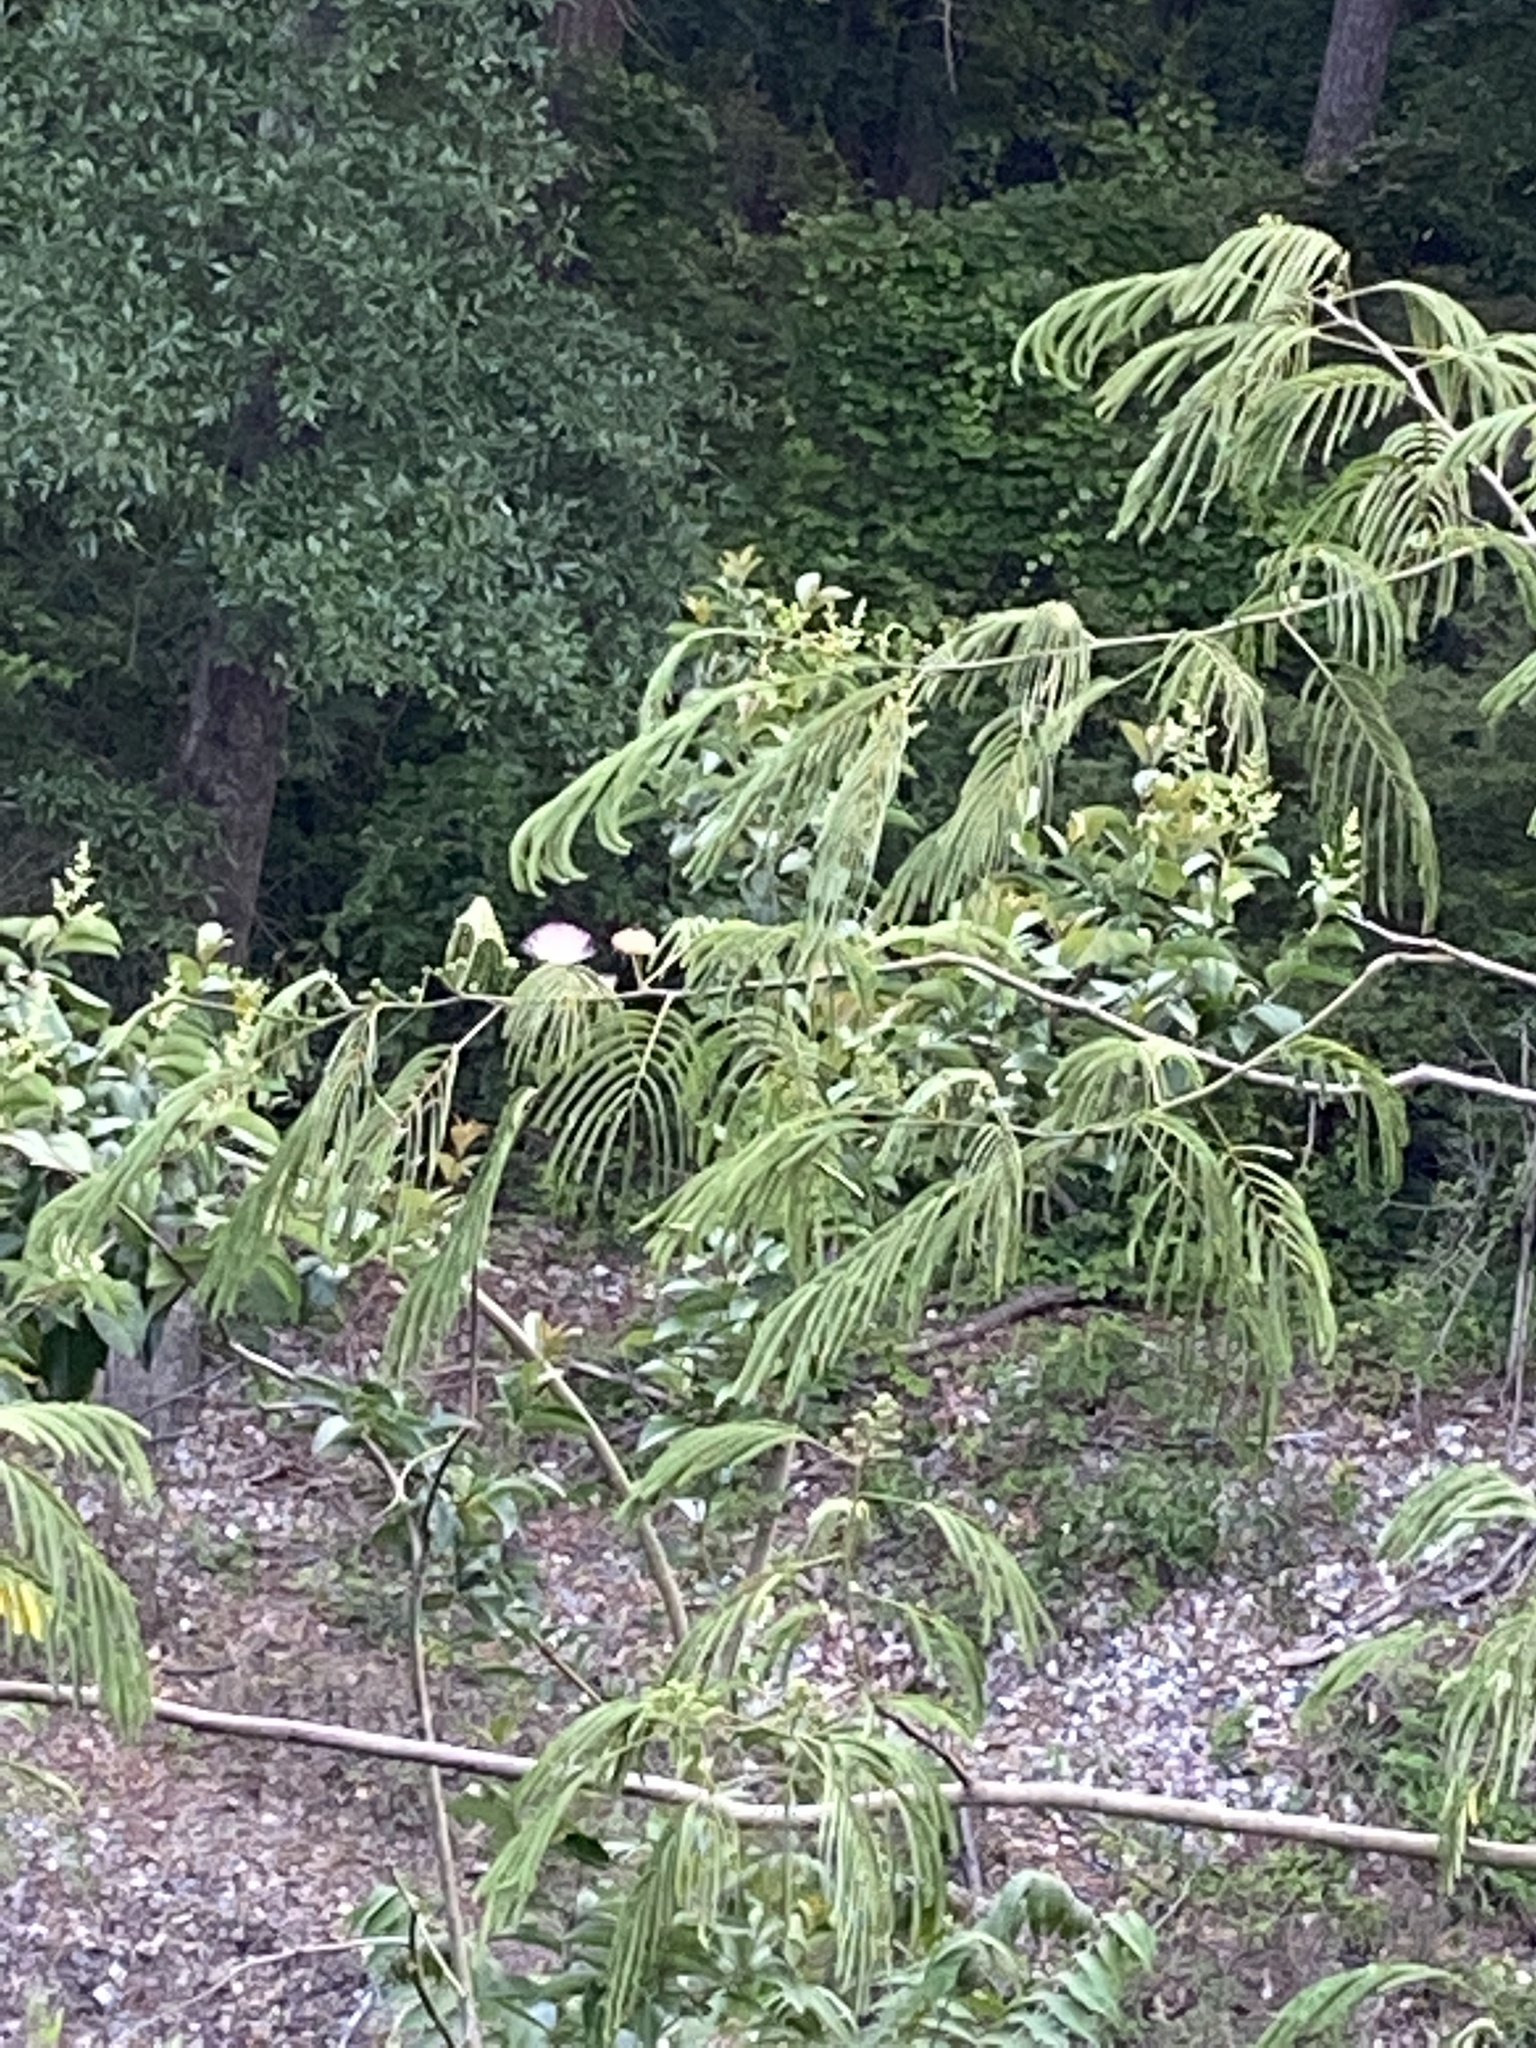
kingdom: Plantae
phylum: Tracheophyta
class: Magnoliopsida
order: Fabales
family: Fabaceae
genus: Albizia
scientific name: Albizia julibrissin
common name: Silktree
